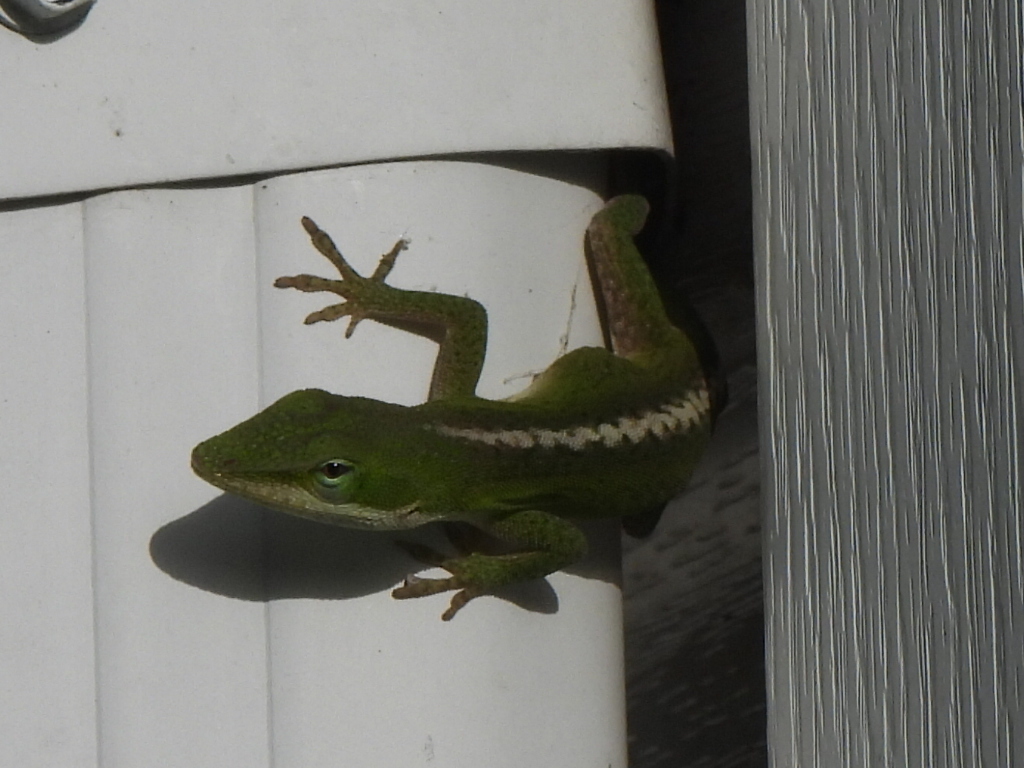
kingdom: Animalia
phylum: Chordata
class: Squamata
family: Dactyloidae
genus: Anolis
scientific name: Anolis carolinensis
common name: Green anole
